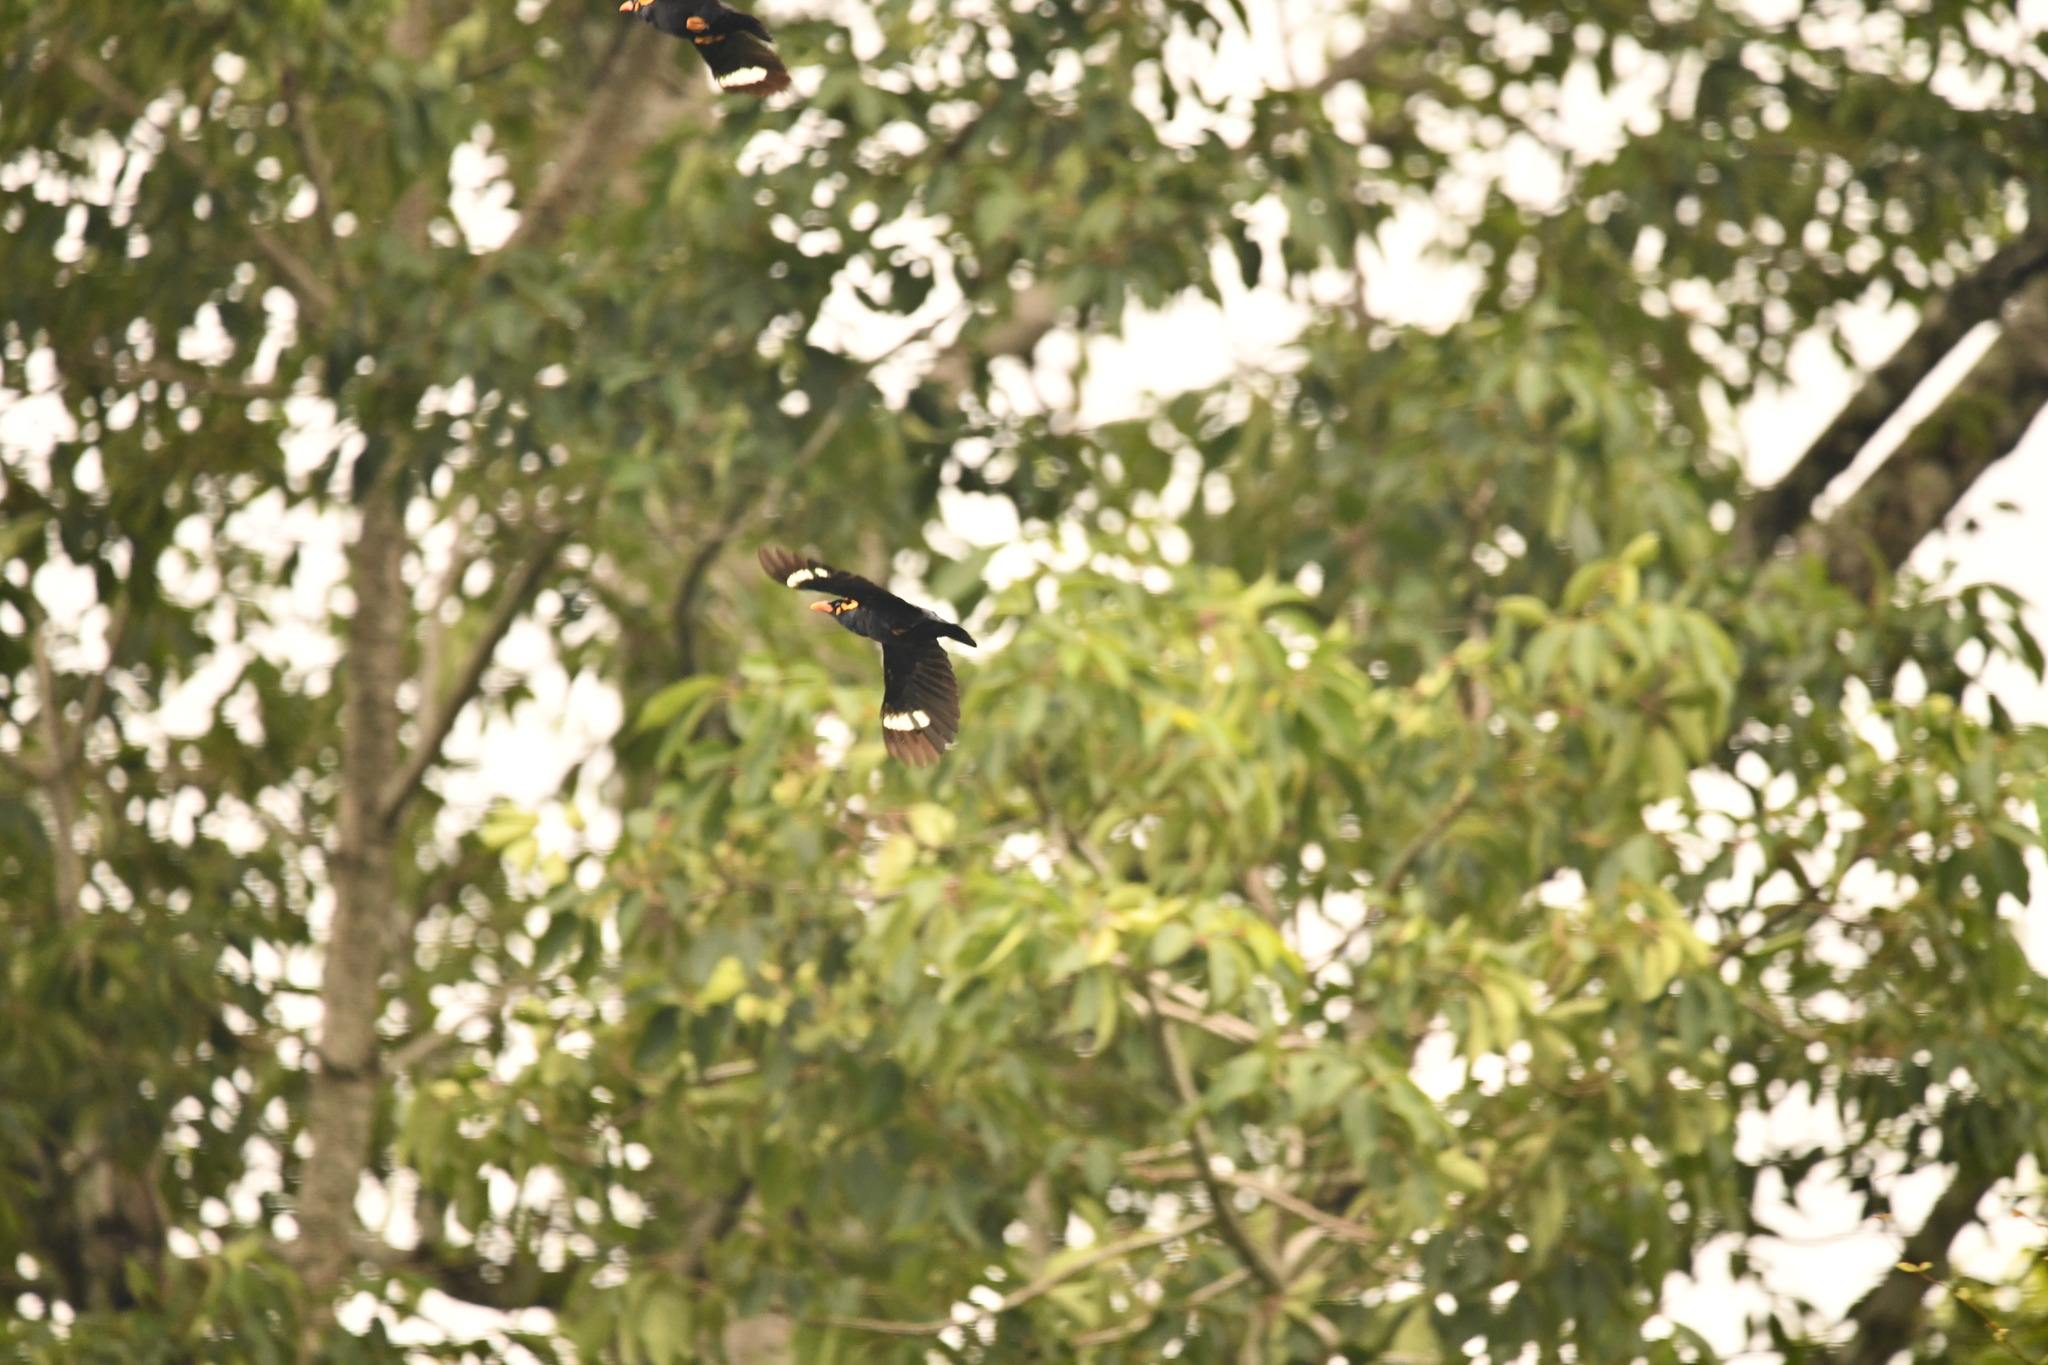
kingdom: Animalia
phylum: Chordata
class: Aves
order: Passeriformes
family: Sturnidae
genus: Gracula
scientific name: Gracula indica
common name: Southern hill myna
